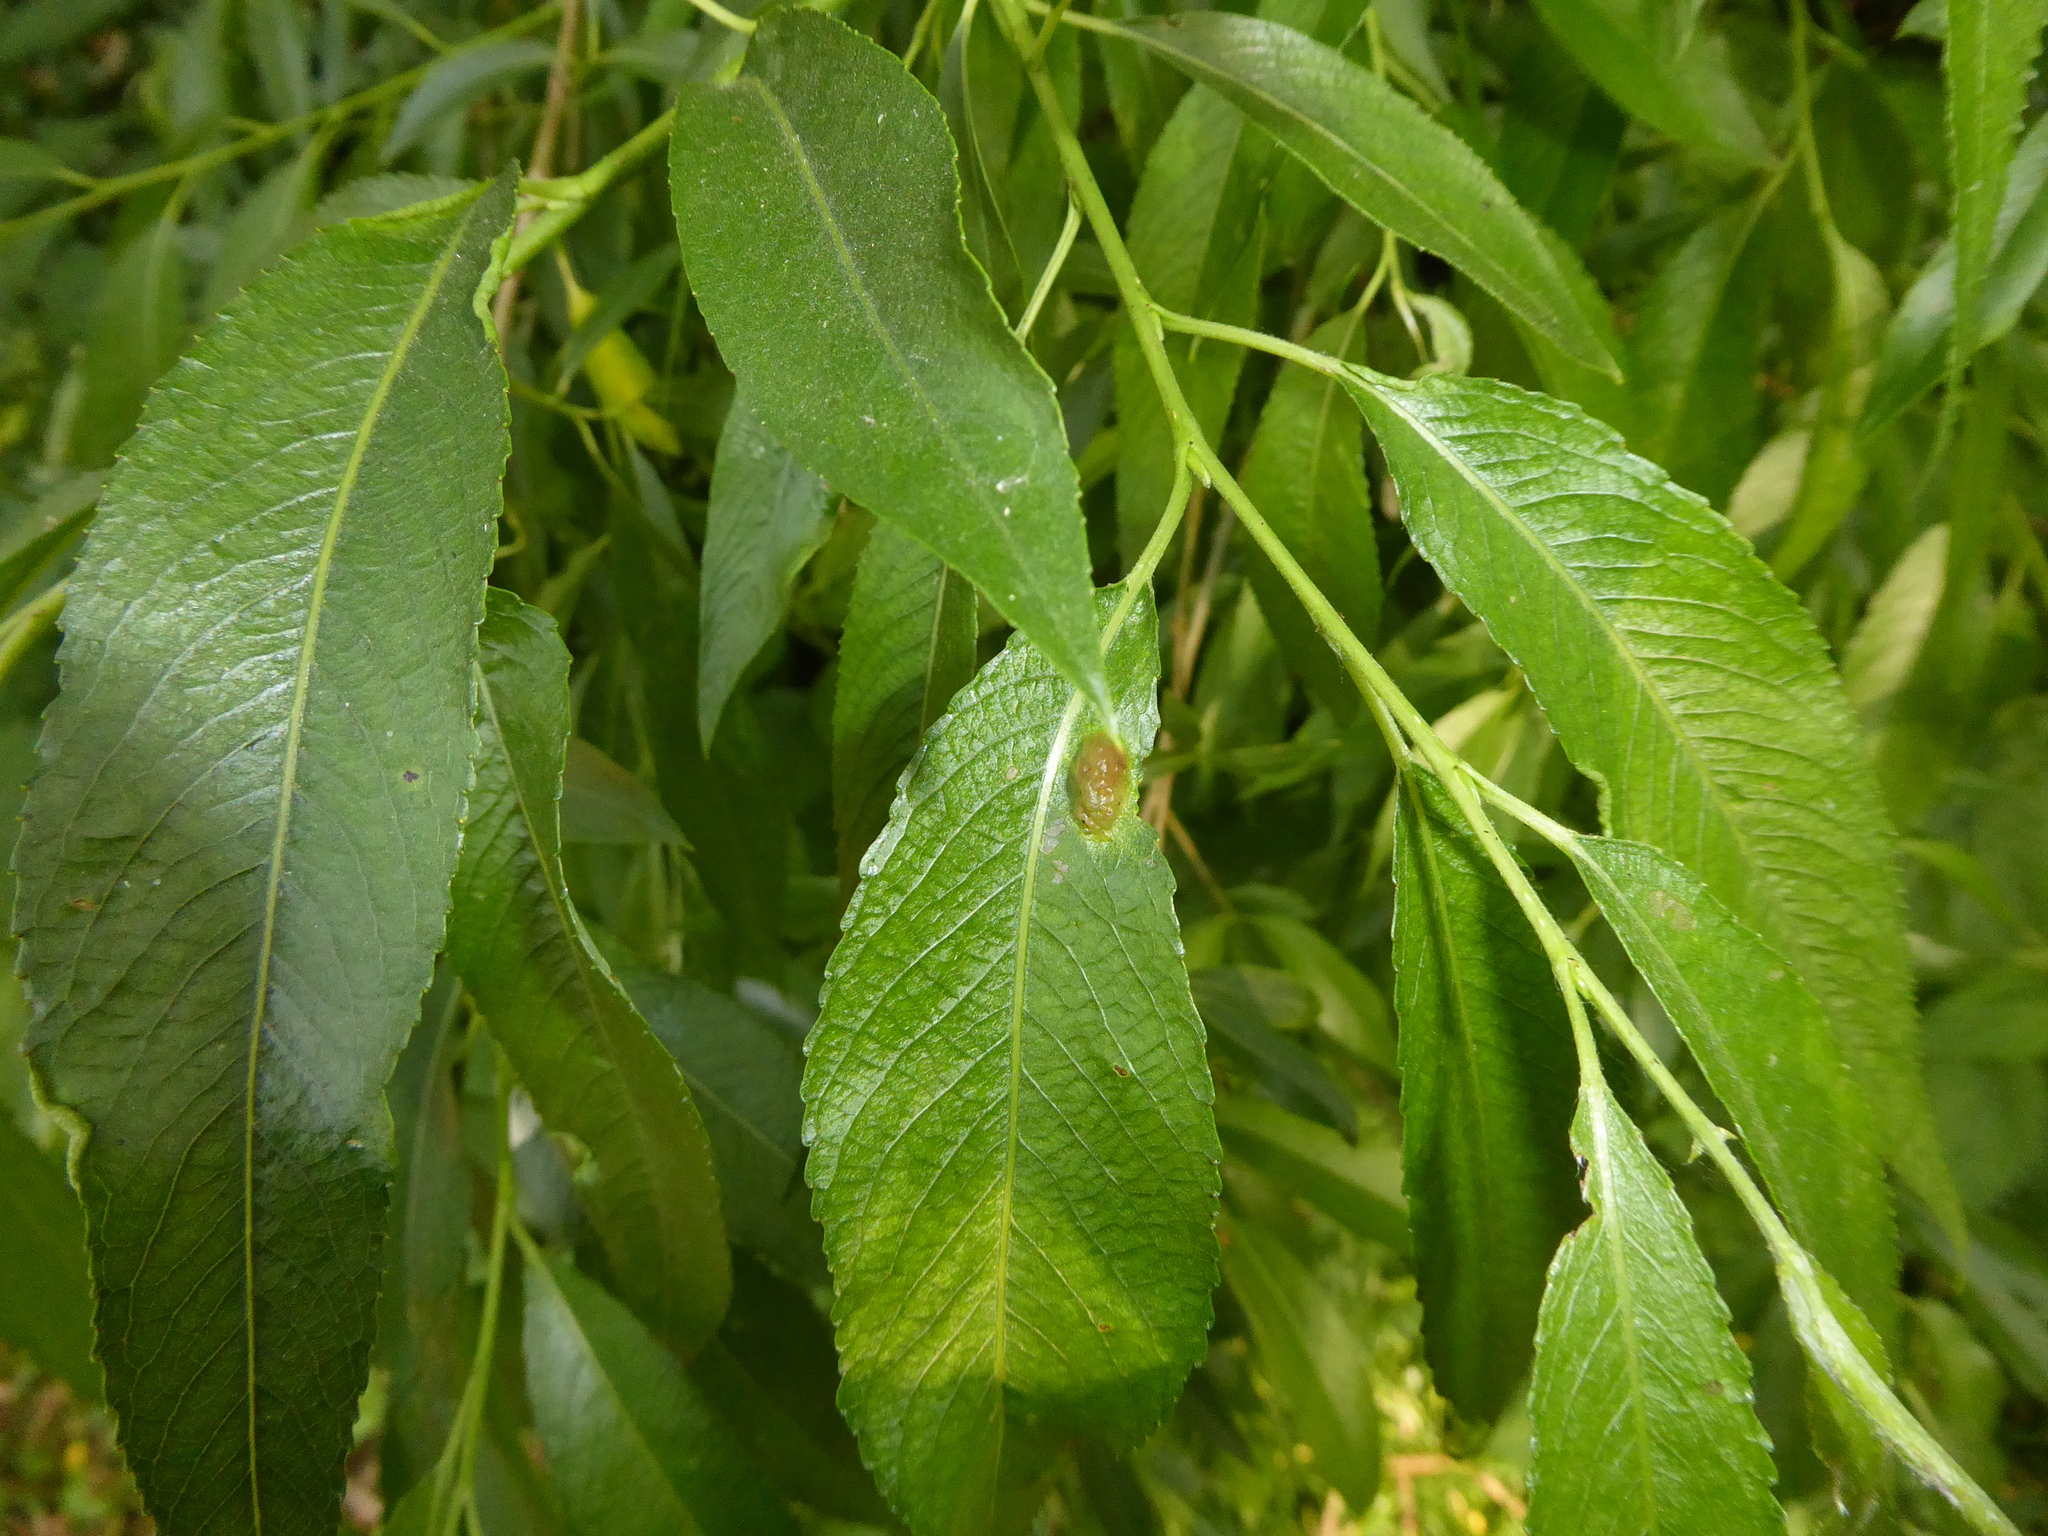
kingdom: Animalia
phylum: Arthropoda
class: Insecta
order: Hymenoptera
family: Tenthredinidae
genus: Pontania
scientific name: Pontania proxima
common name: Common sawfly
